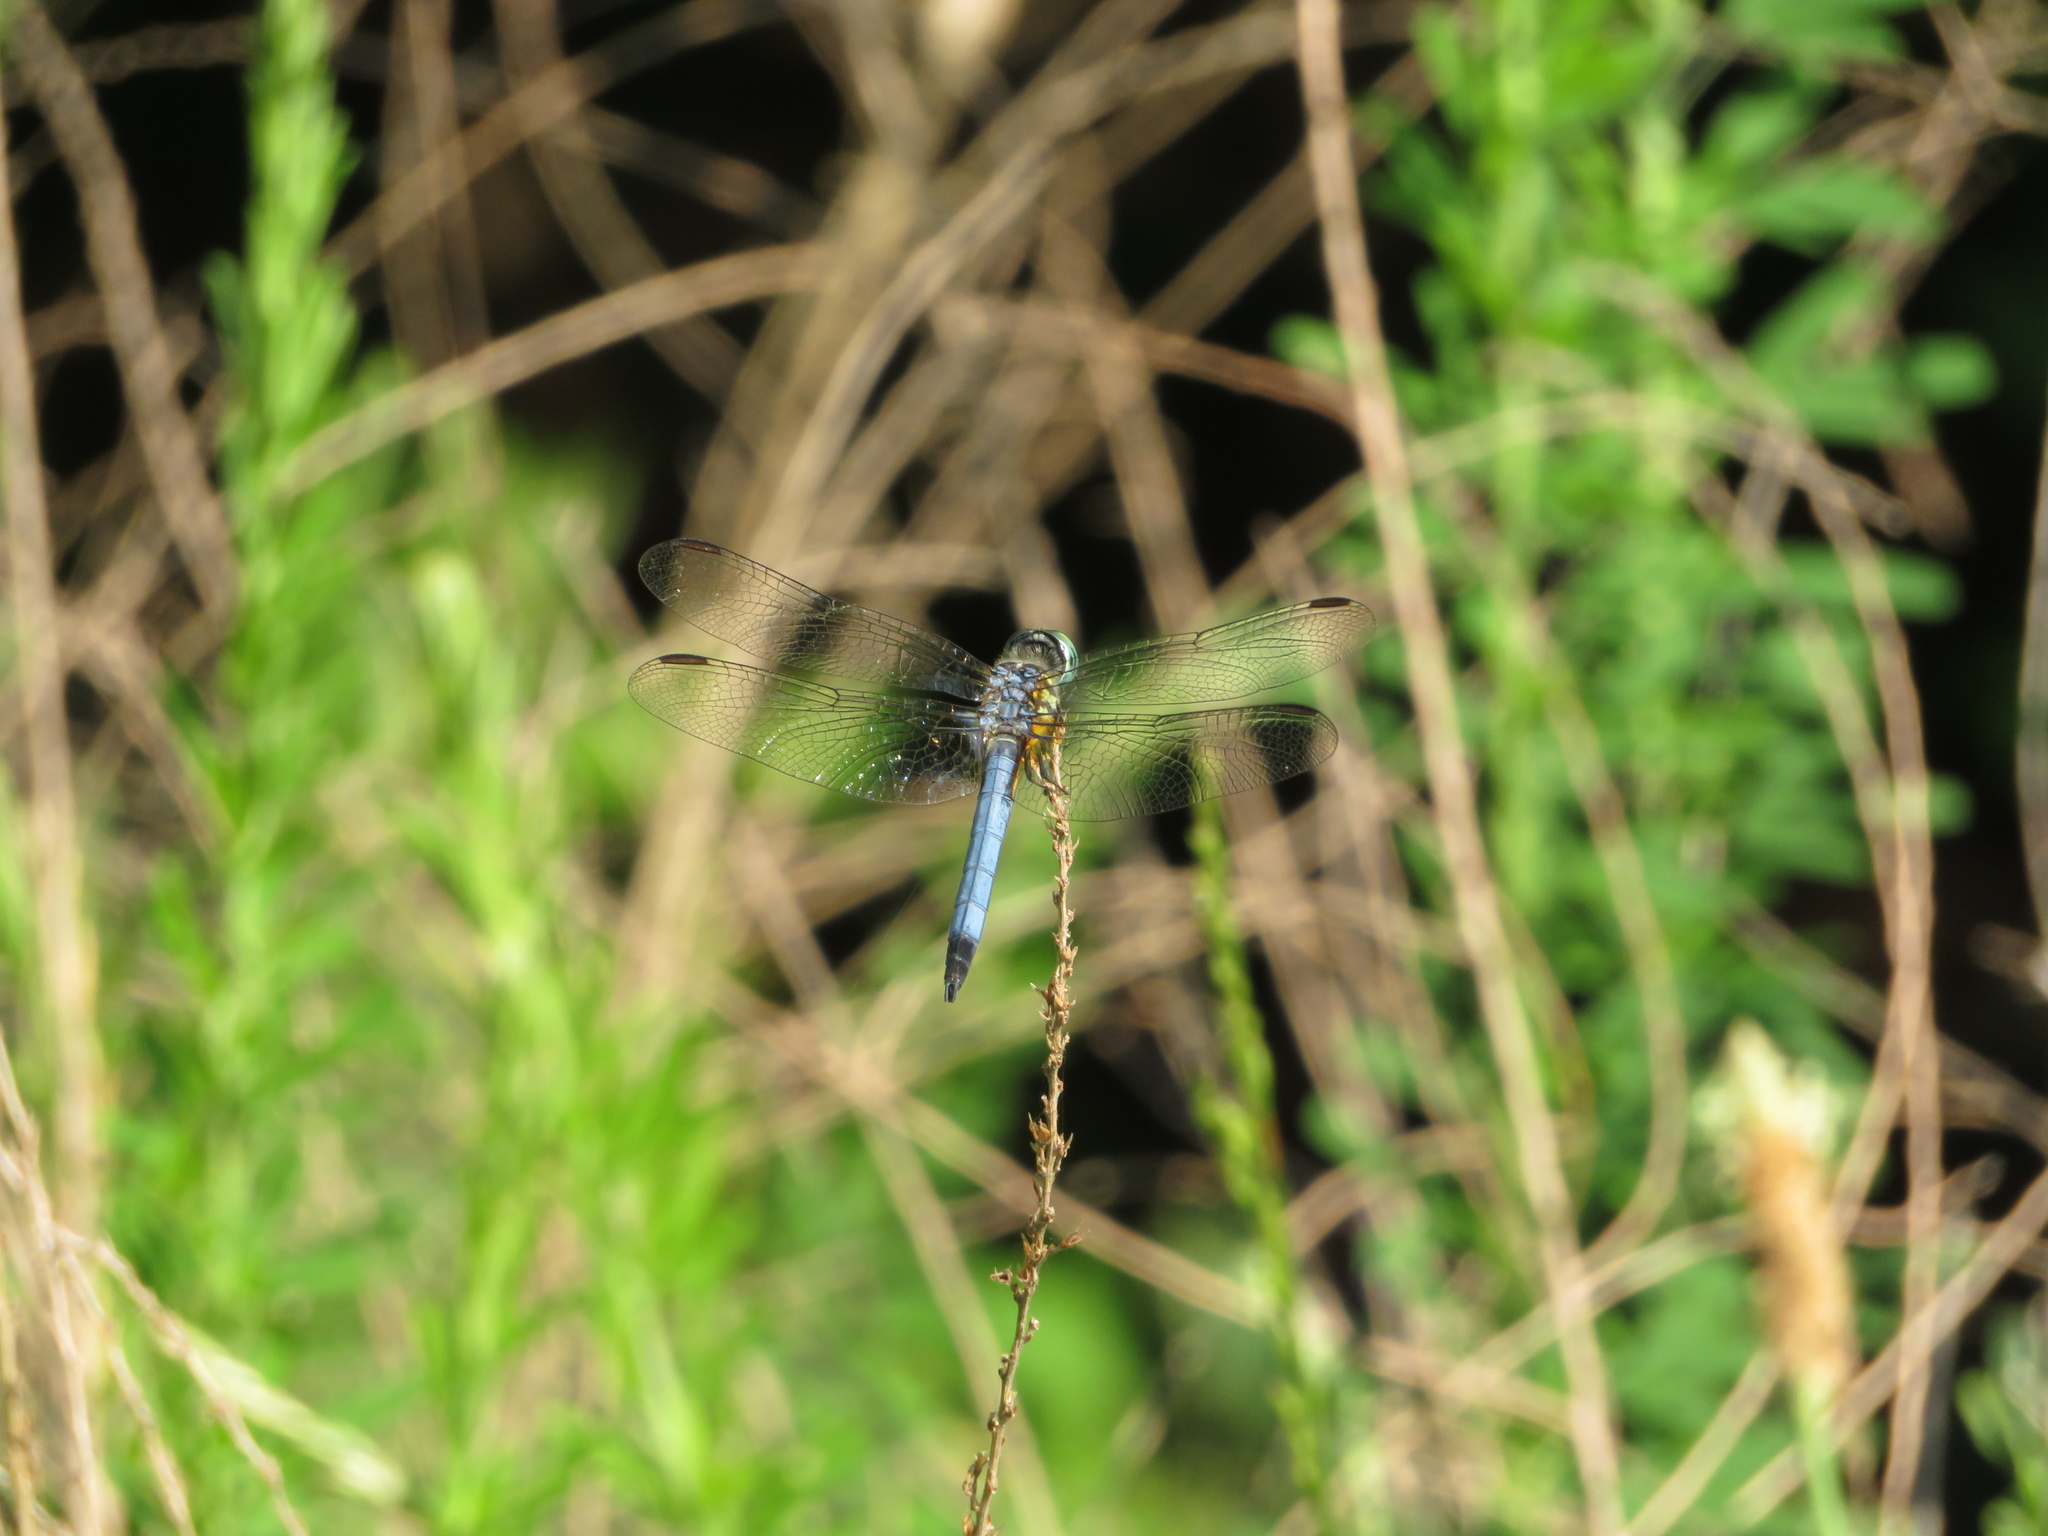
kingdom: Animalia
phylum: Arthropoda
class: Insecta
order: Odonata
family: Libellulidae
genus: Pachydiplax
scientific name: Pachydiplax longipennis
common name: Blue dasher
